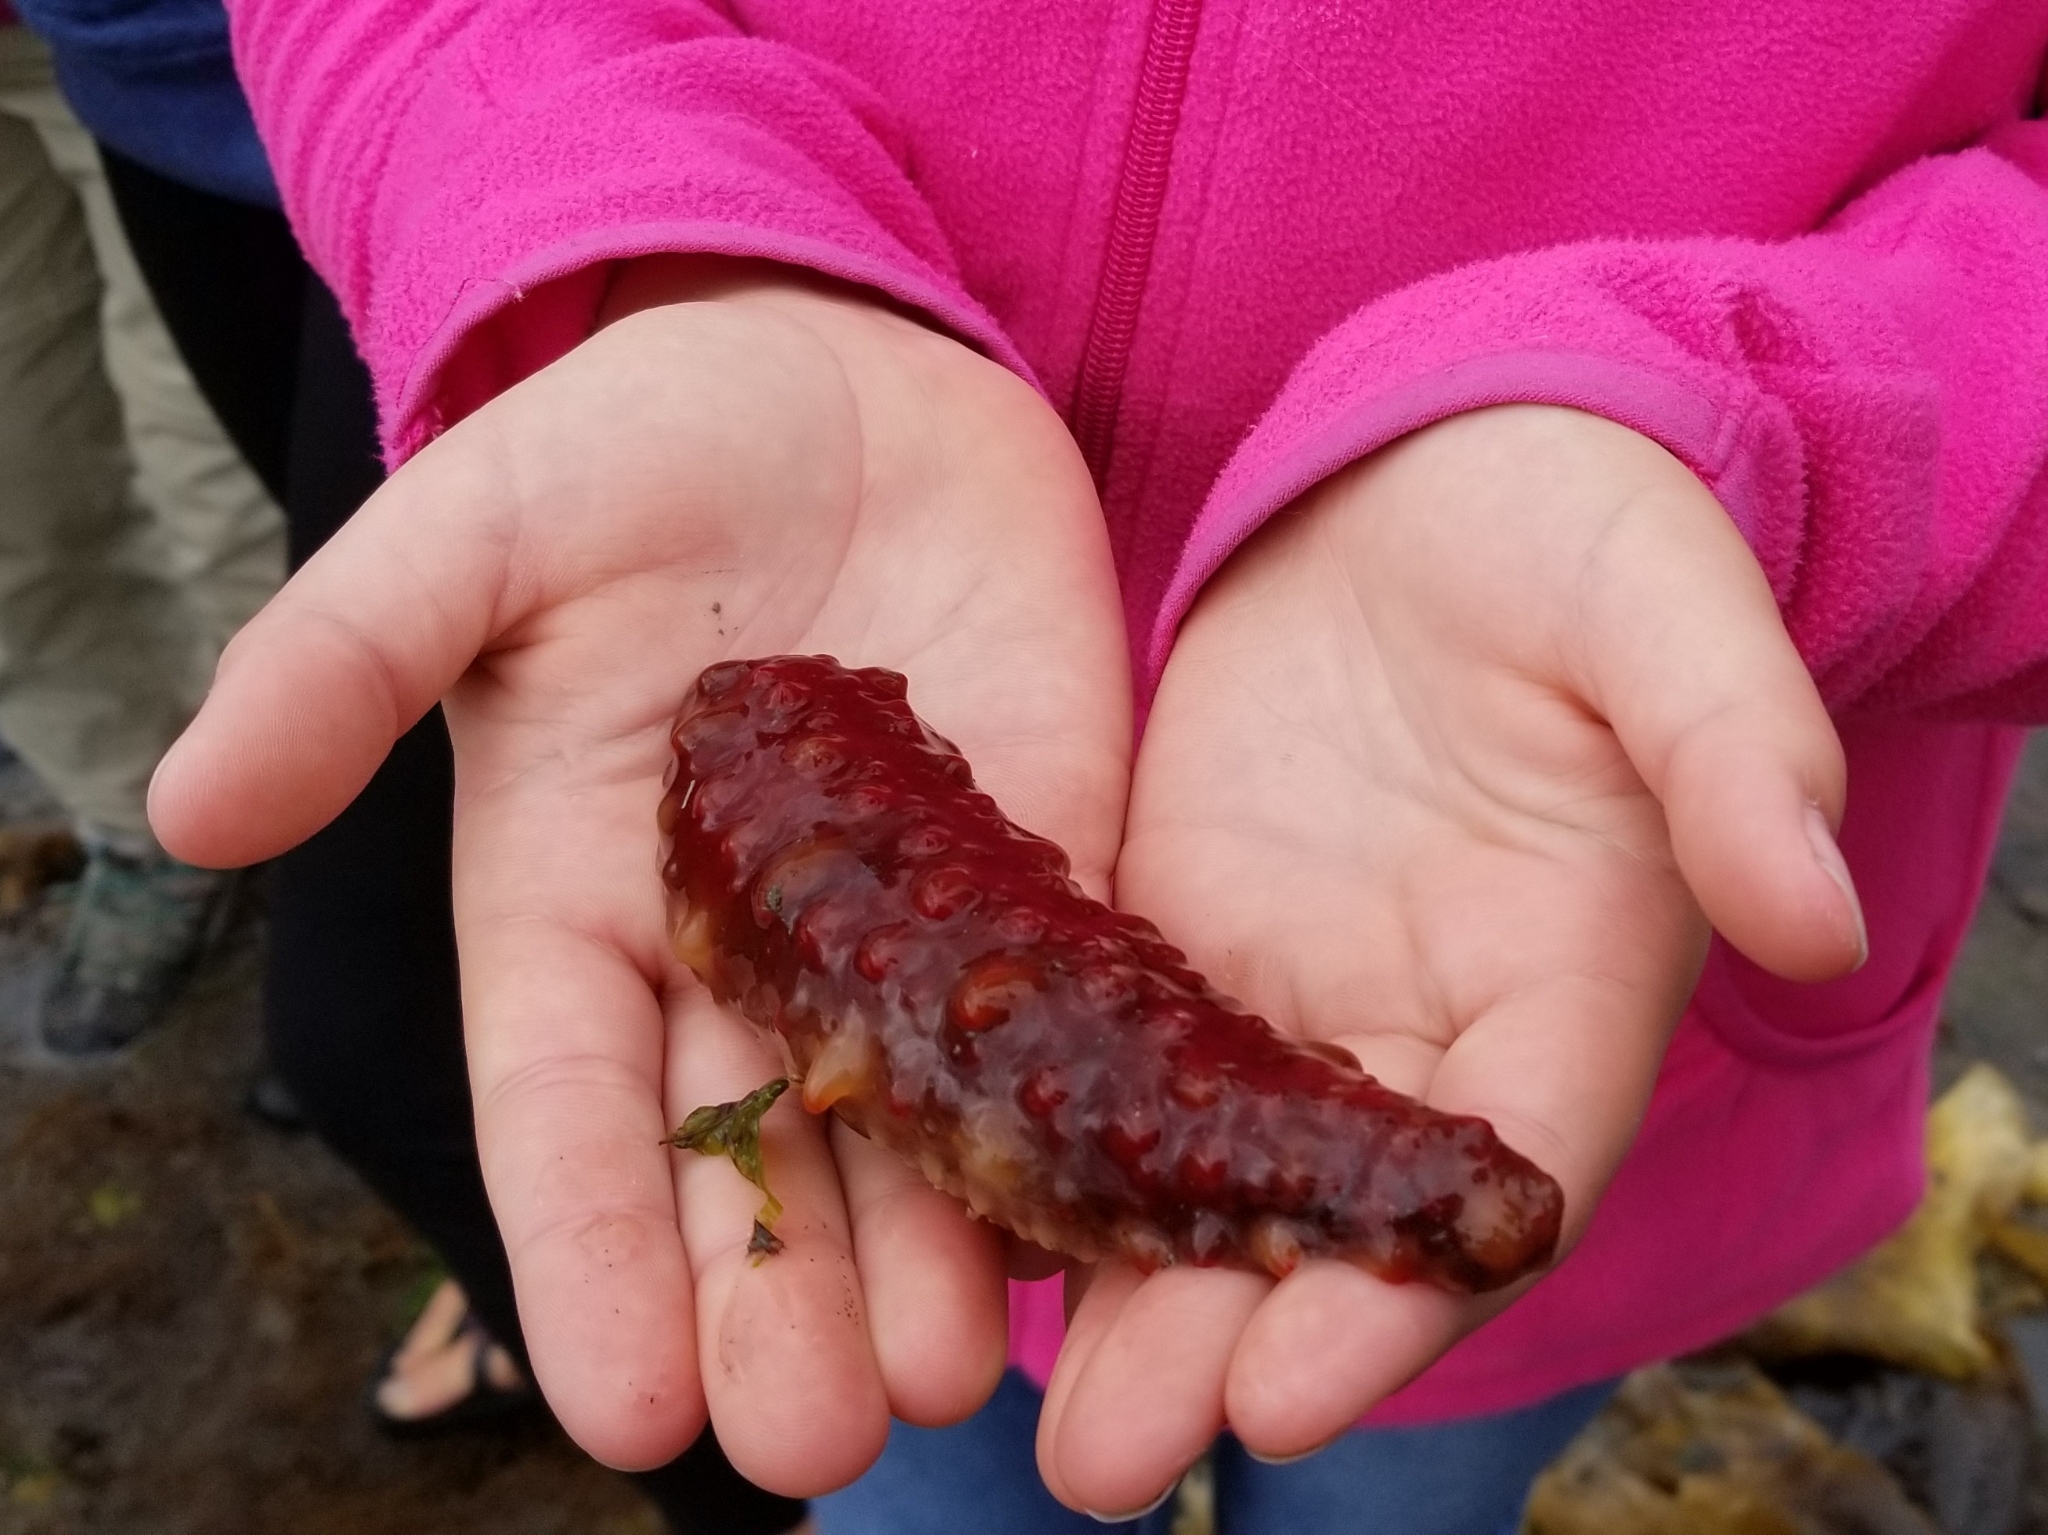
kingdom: Animalia
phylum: Echinodermata
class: Holothuroidea
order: Synallactida
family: Stichopodidae
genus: Apostichopus
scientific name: Apostichopus californicus
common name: California sea cucumber
